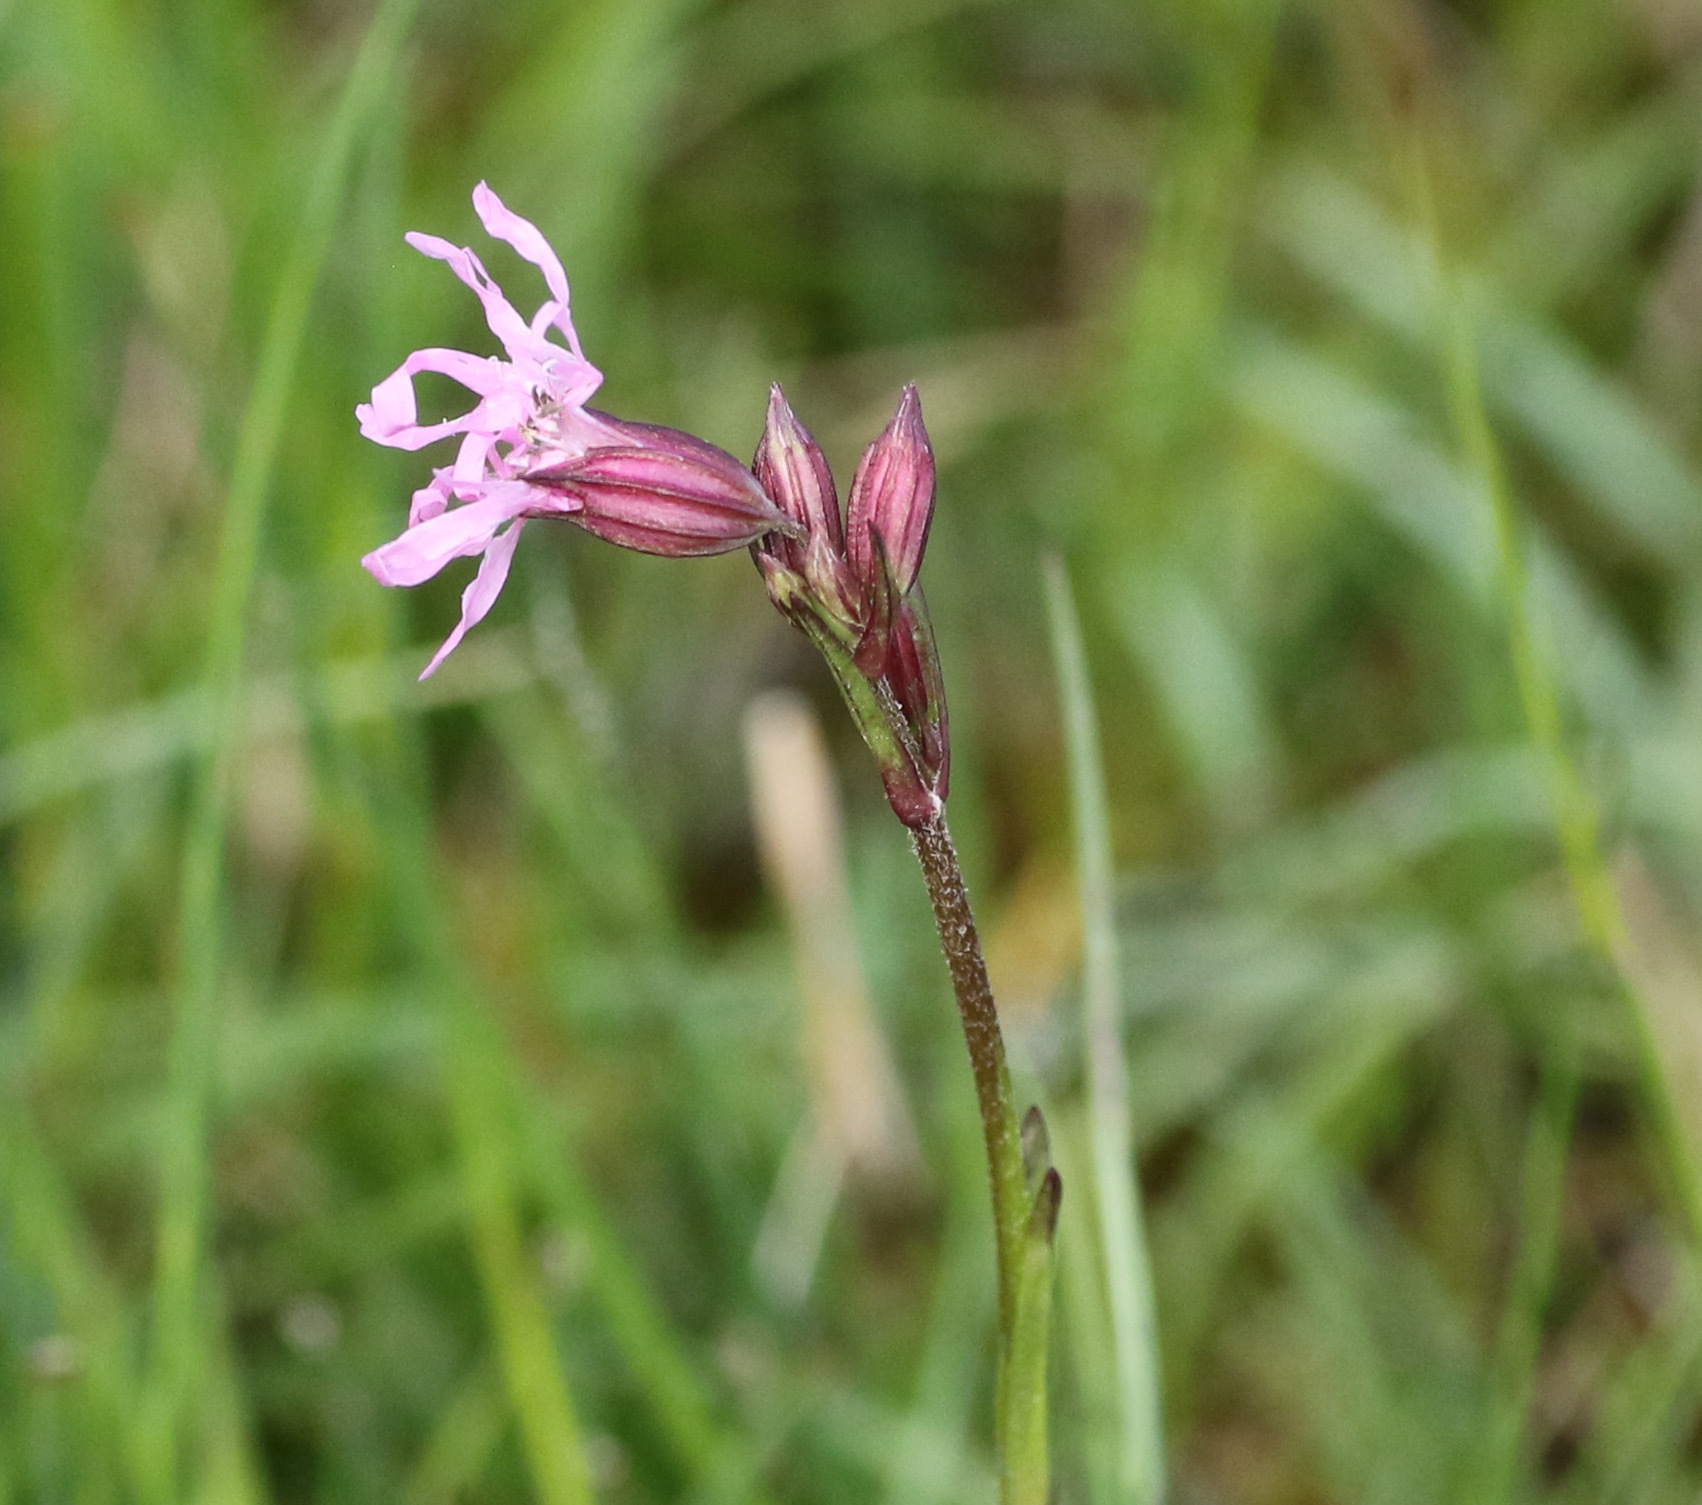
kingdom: Plantae
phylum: Tracheophyta
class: Magnoliopsida
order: Caryophyllales
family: Caryophyllaceae
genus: Silene
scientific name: Silene flos-cuculi
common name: Ragged-robin
